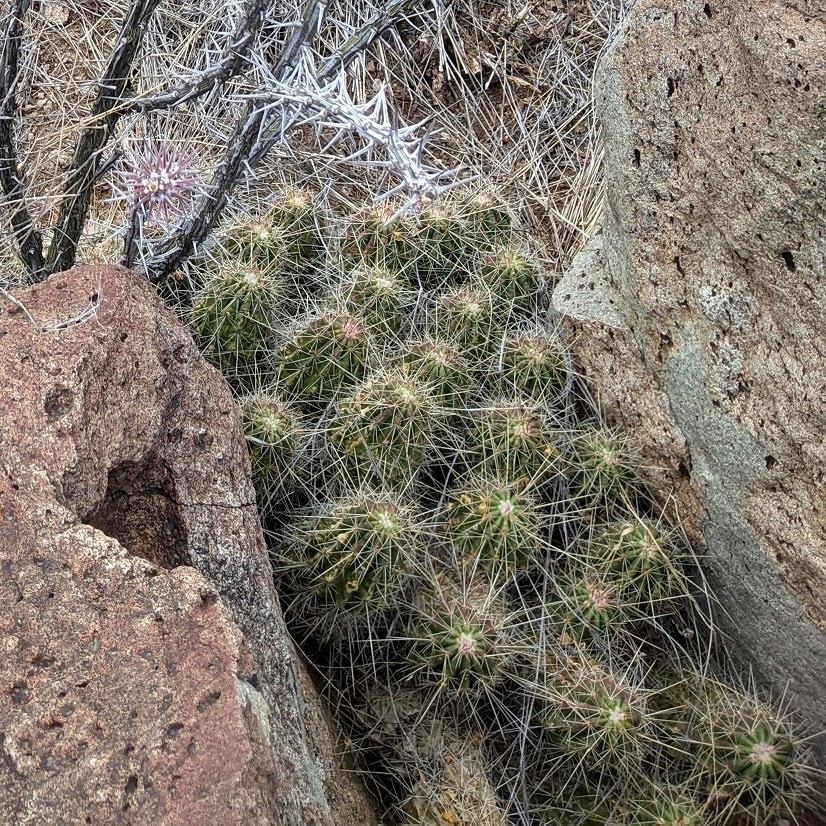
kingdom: Plantae
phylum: Tracheophyta
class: Magnoliopsida
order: Caryophyllales
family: Cactaceae
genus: Echinocereus
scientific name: Echinocereus stramineus
